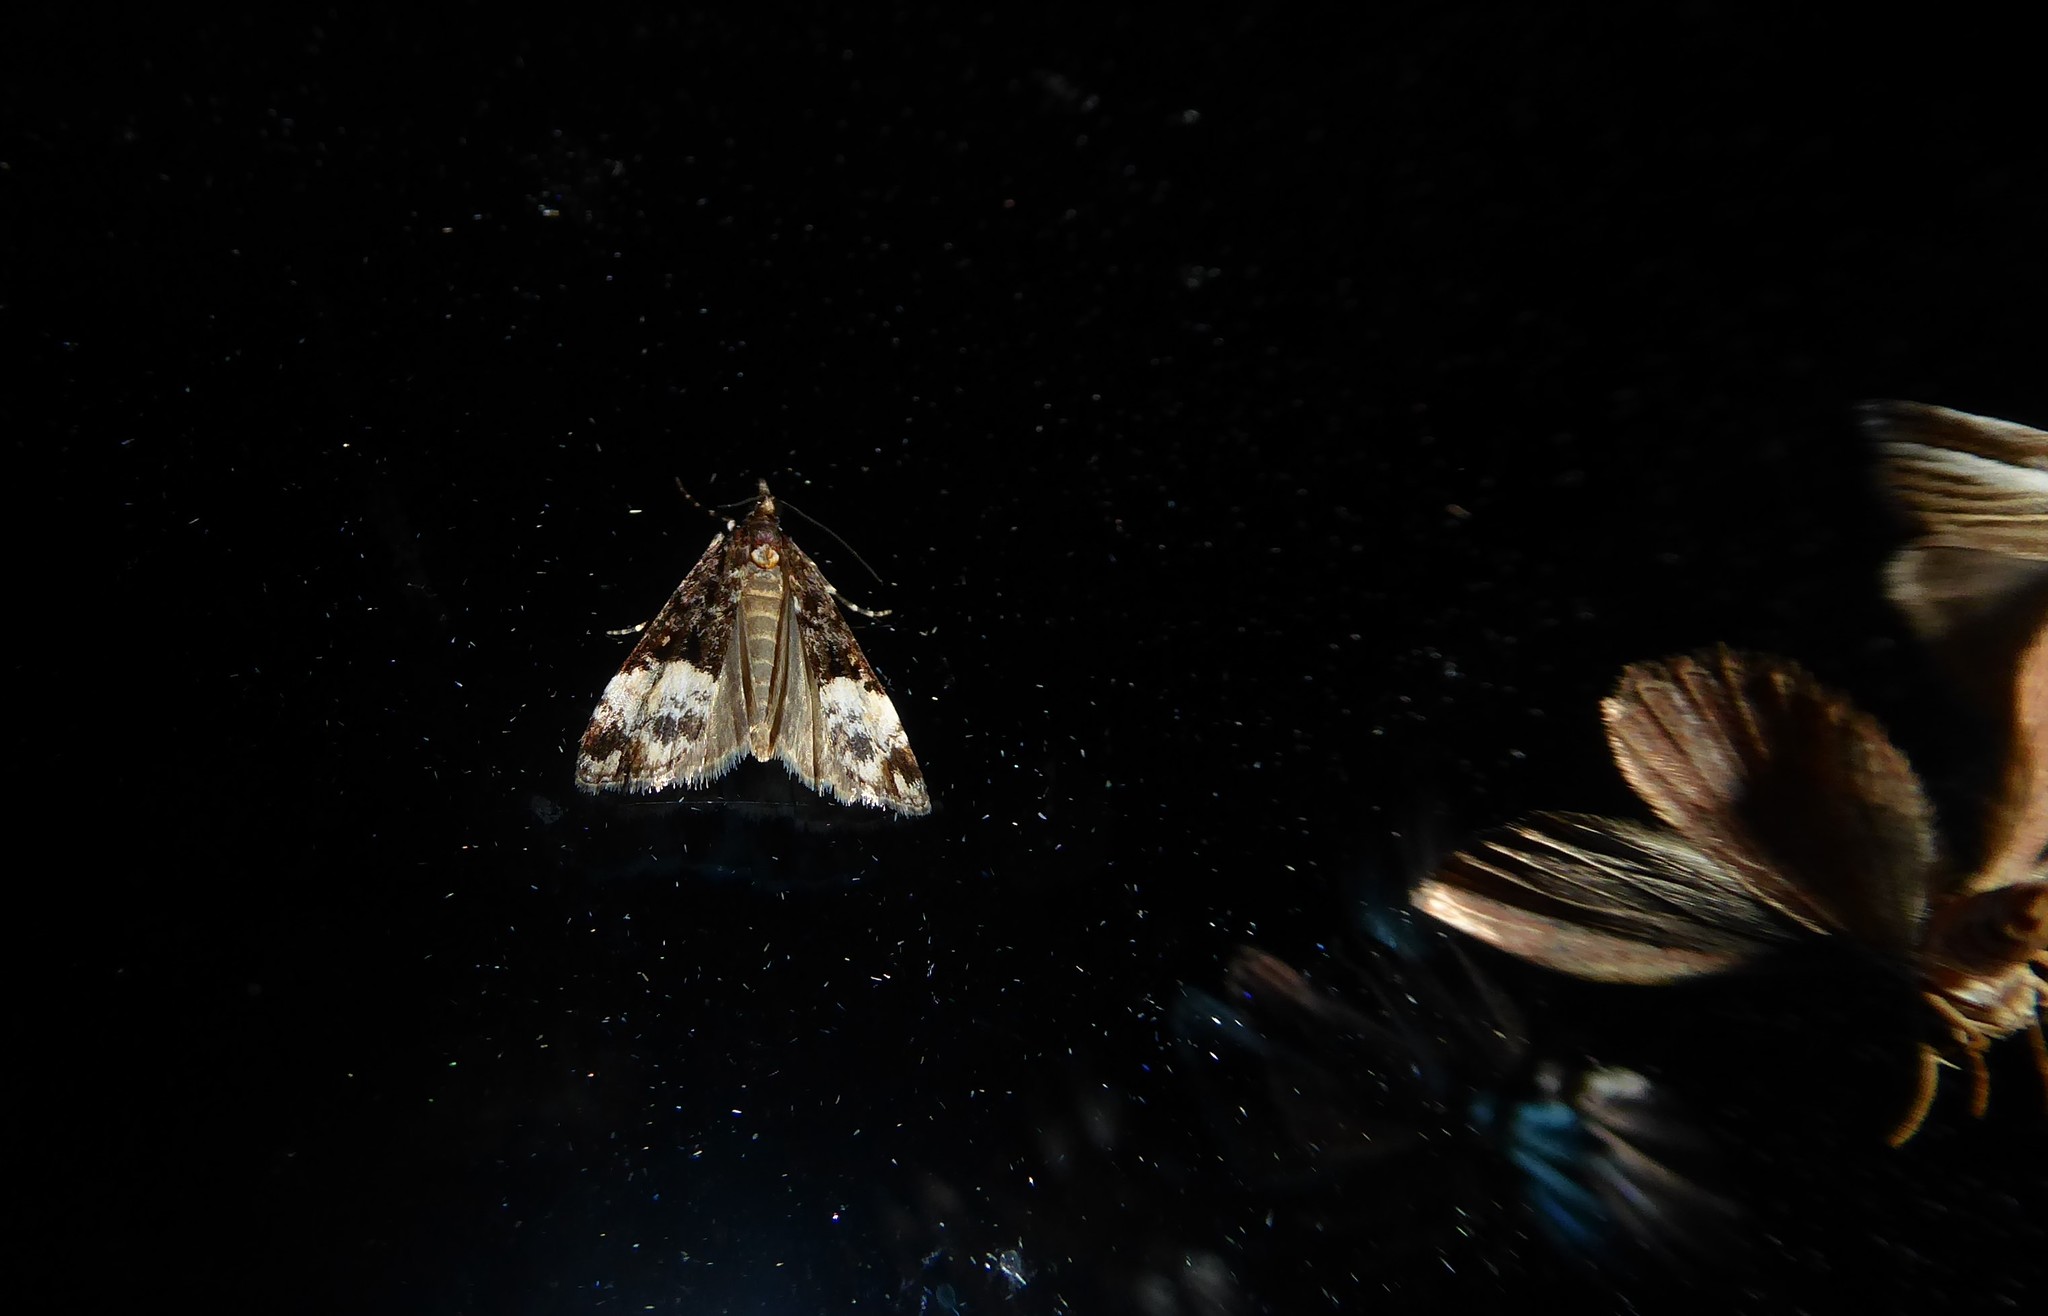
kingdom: Animalia
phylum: Arthropoda
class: Insecta
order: Lepidoptera
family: Crambidae
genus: Scoparia
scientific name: Scoparia minusculalis
